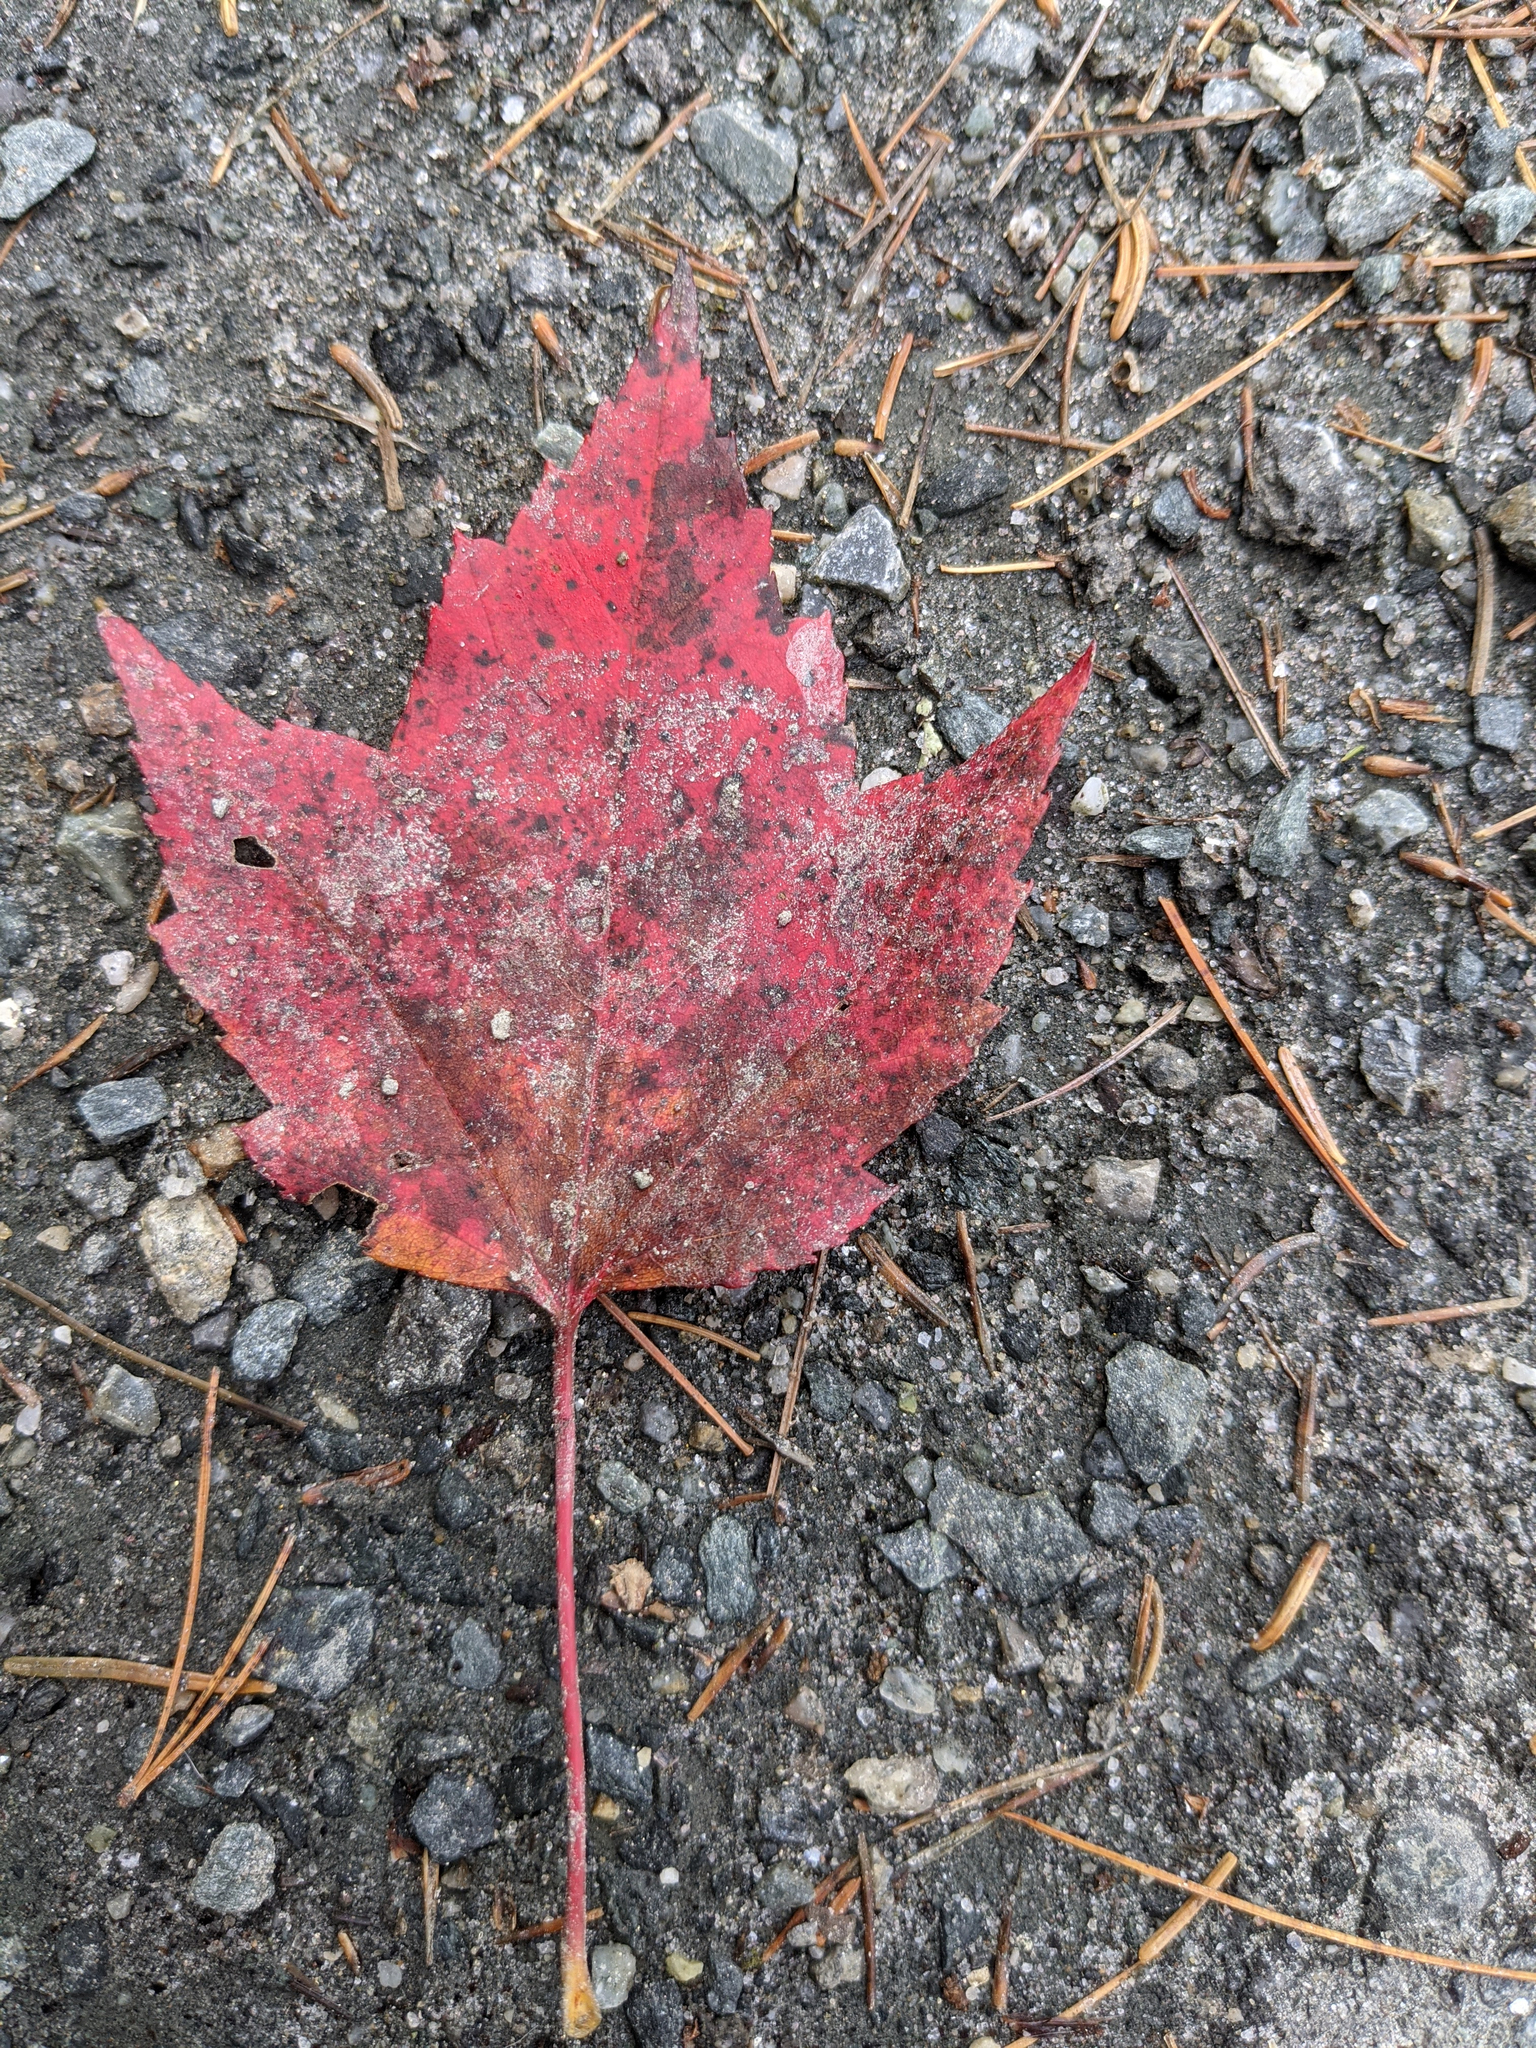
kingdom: Plantae
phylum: Tracheophyta
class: Magnoliopsida
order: Sapindales
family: Sapindaceae
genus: Acer
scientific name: Acer rubrum
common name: Red maple
